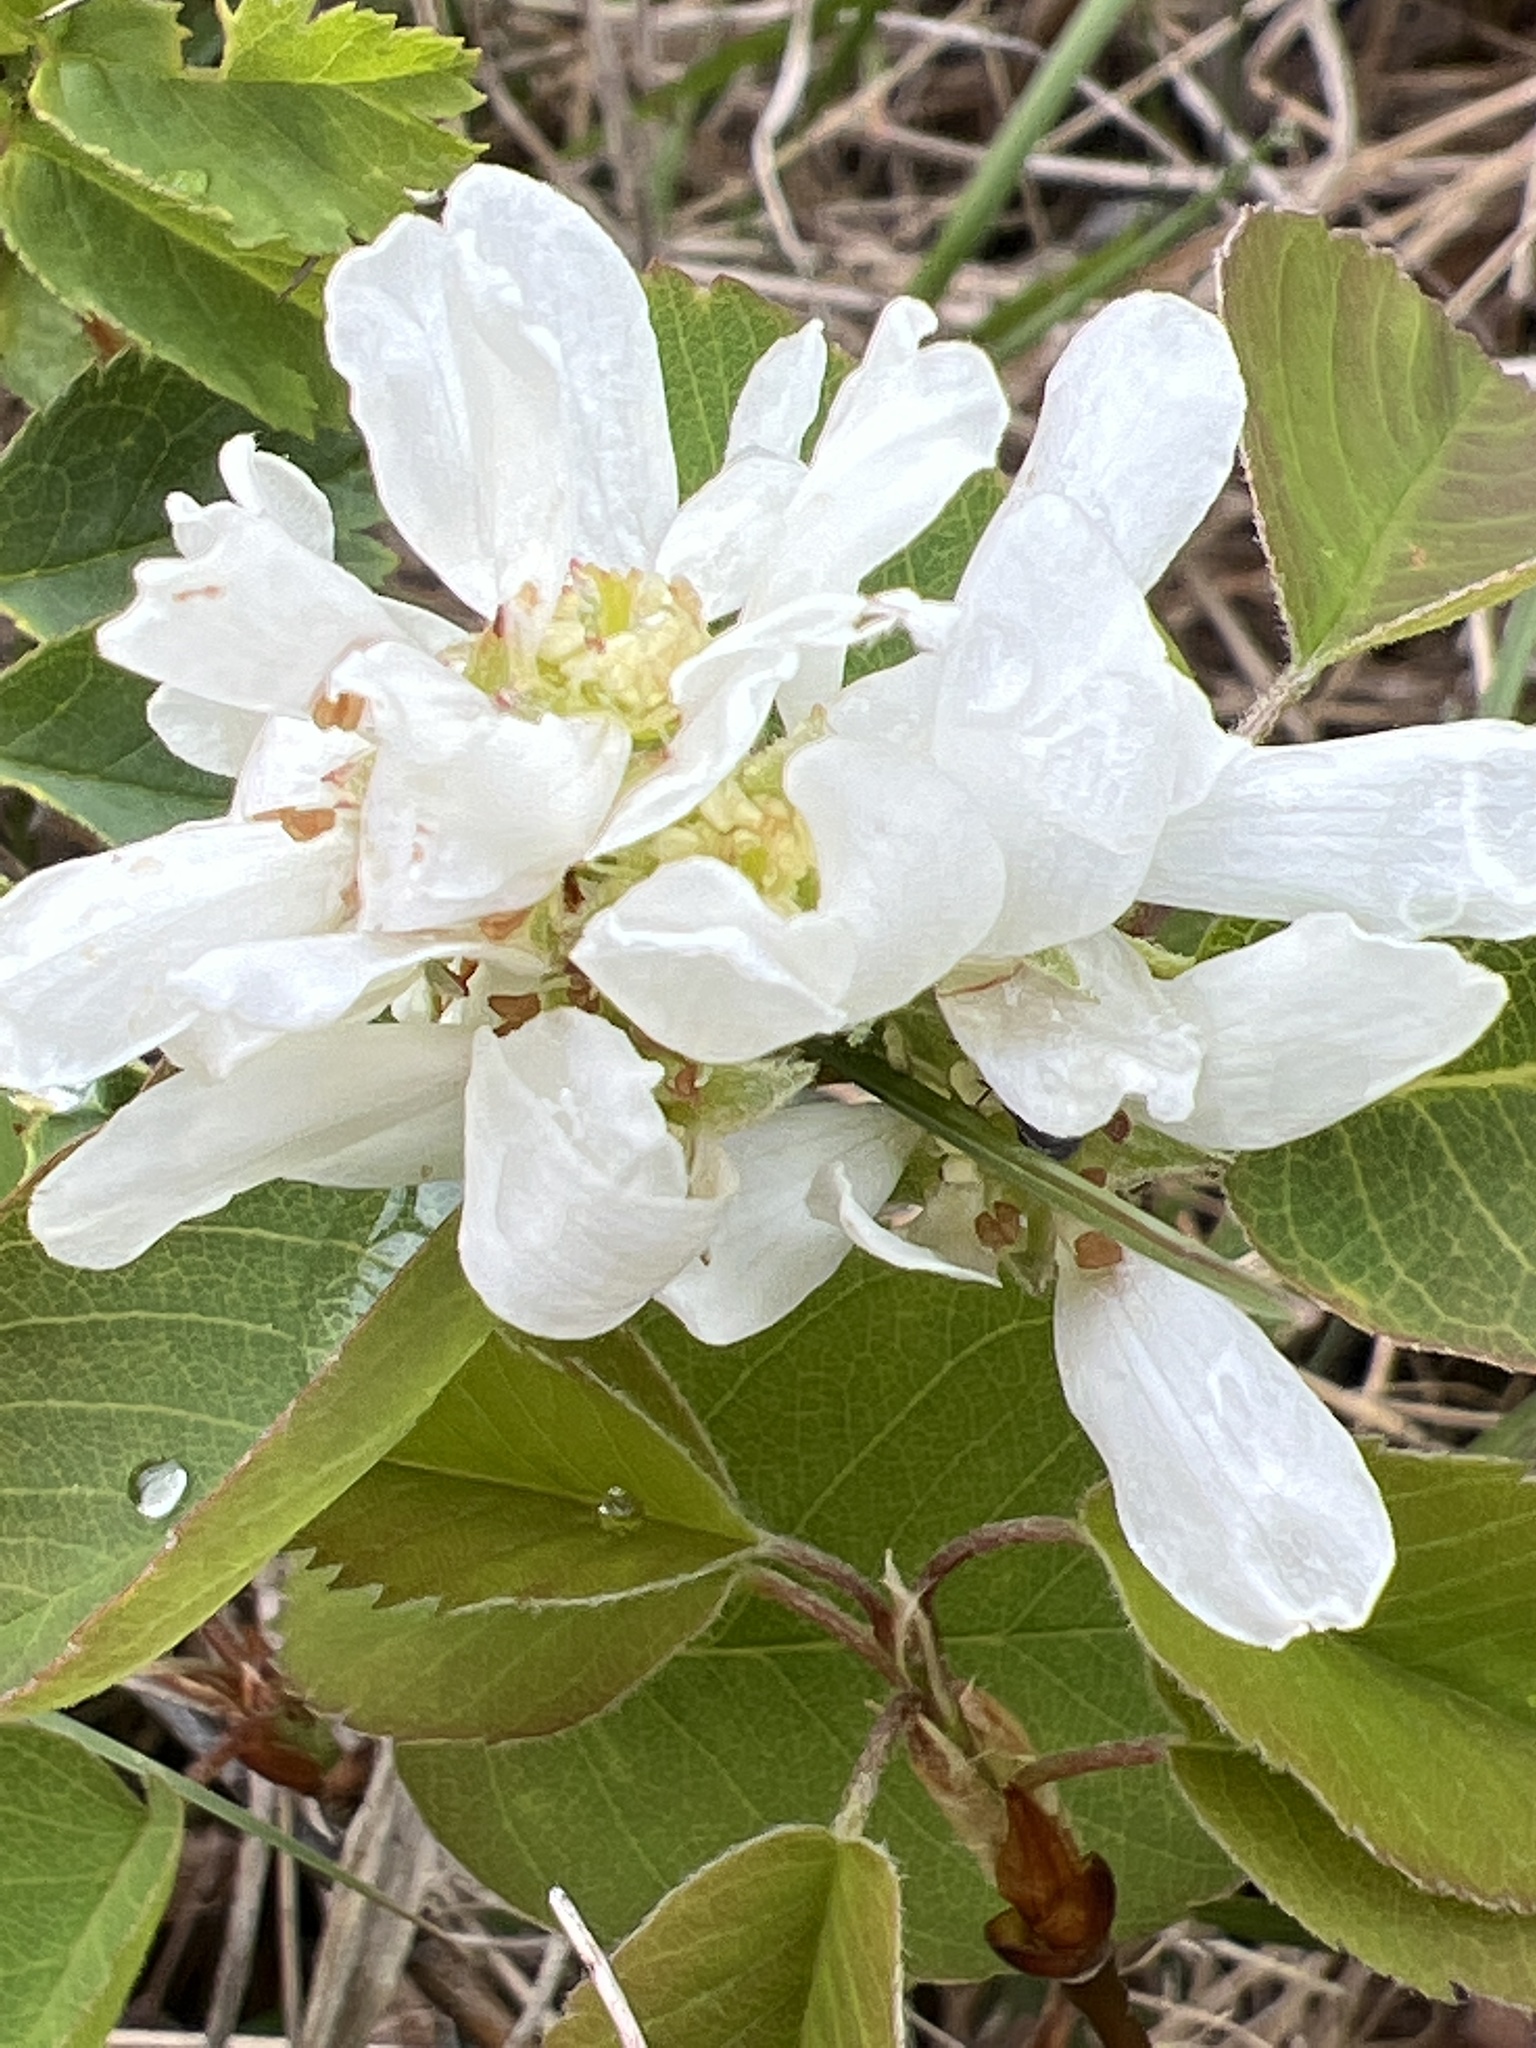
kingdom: Plantae
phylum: Tracheophyta
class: Magnoliopsida
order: Rosales
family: Rosaceae
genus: Amelanchier
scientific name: Amelanchier alnifolia
